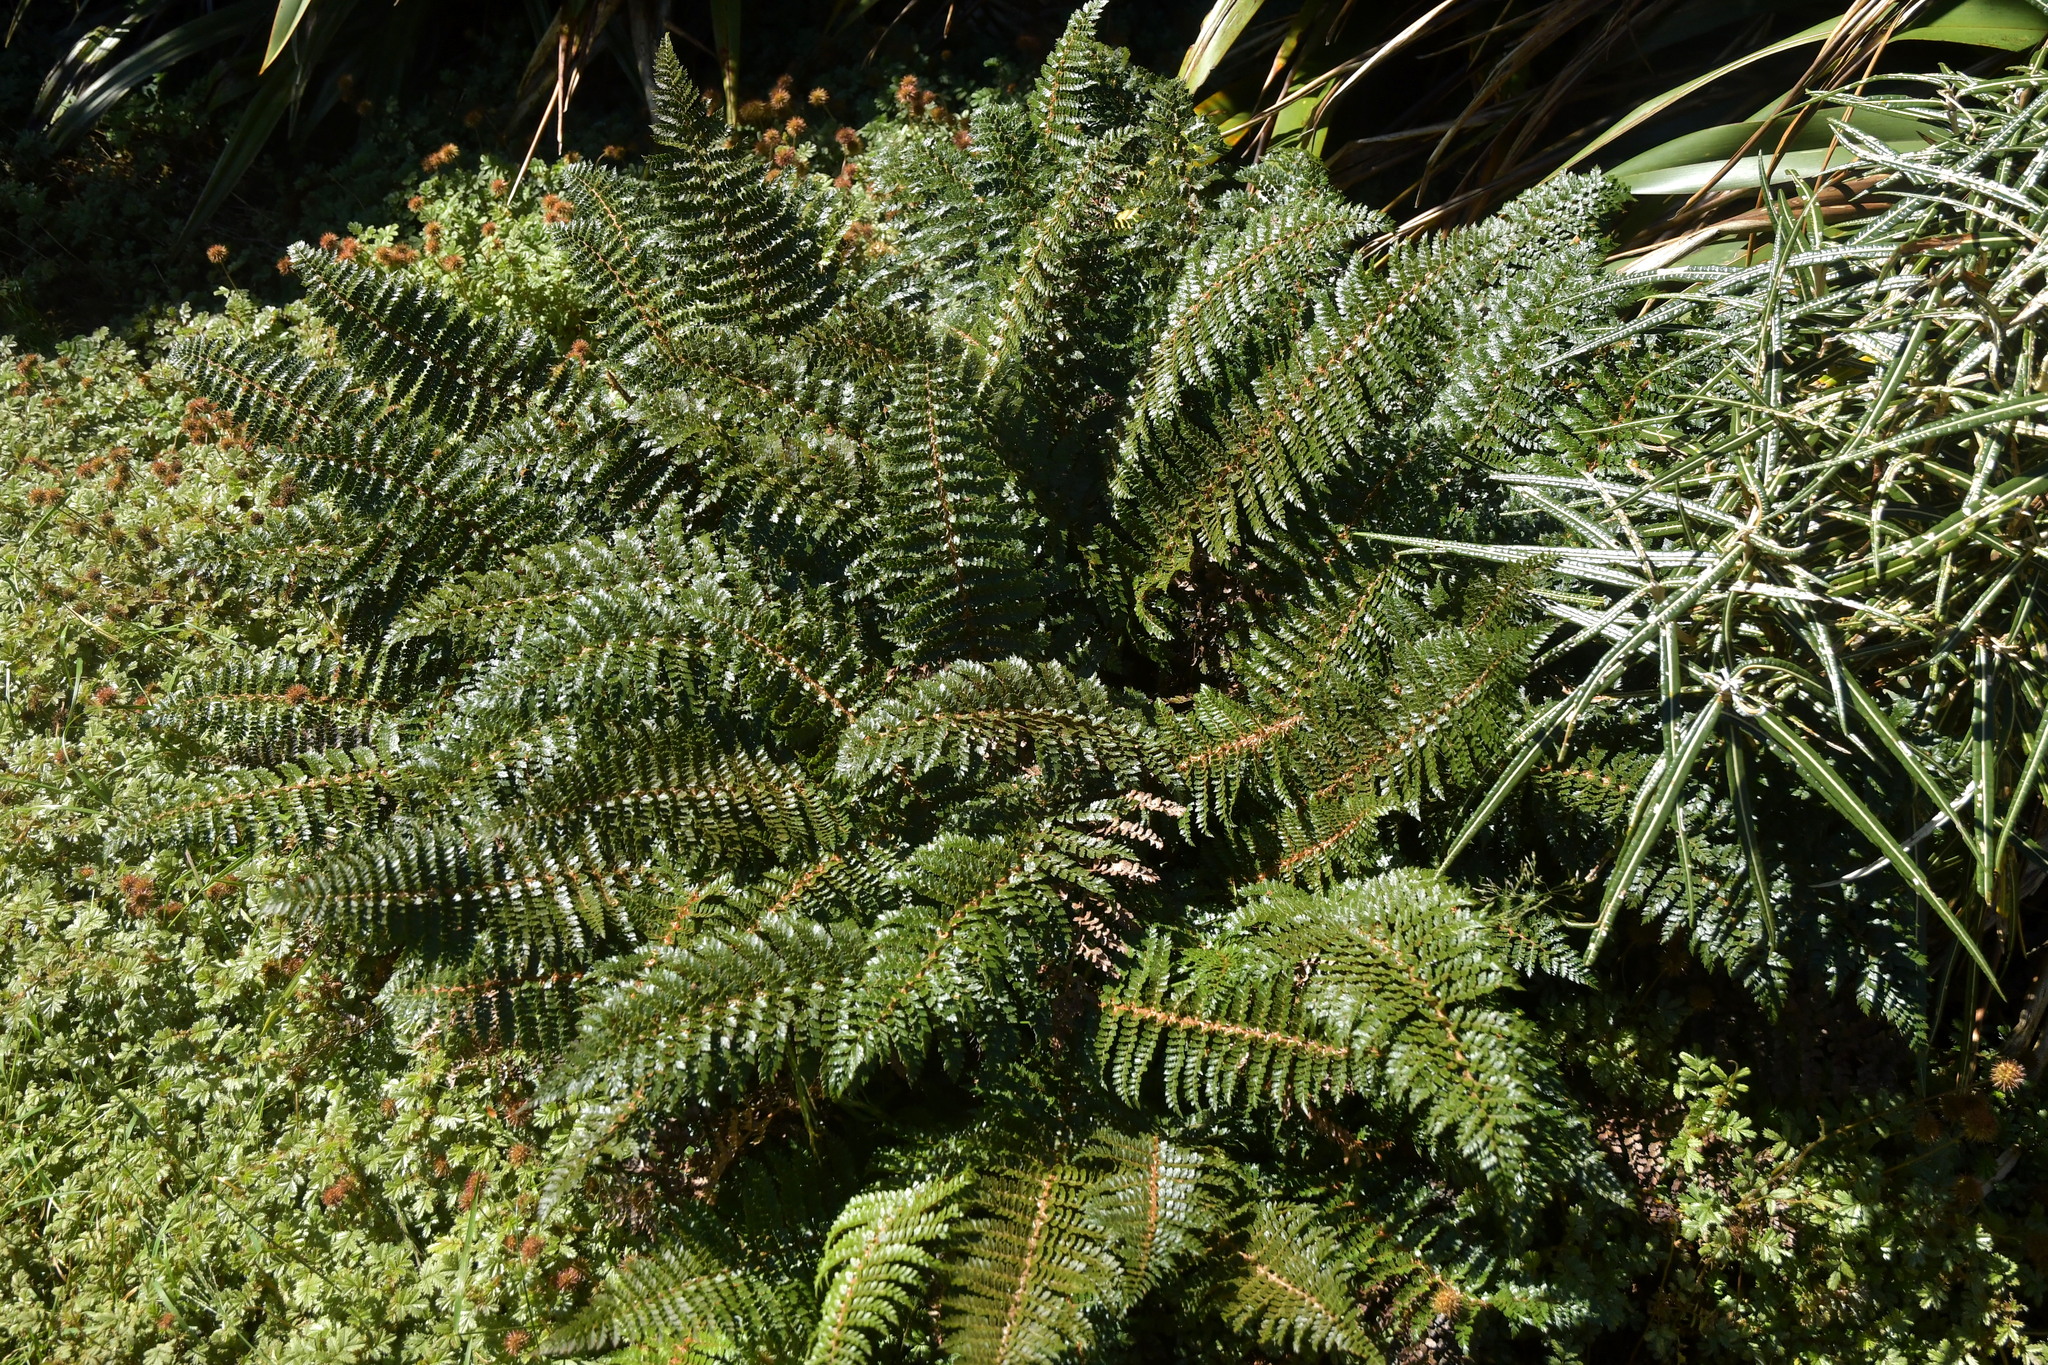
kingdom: Plantae
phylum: Tracheophyta
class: Polypodiopsida
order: Polypodiales
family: Dryopteridaceae
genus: Polystichum
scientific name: Polystichum vestitum
